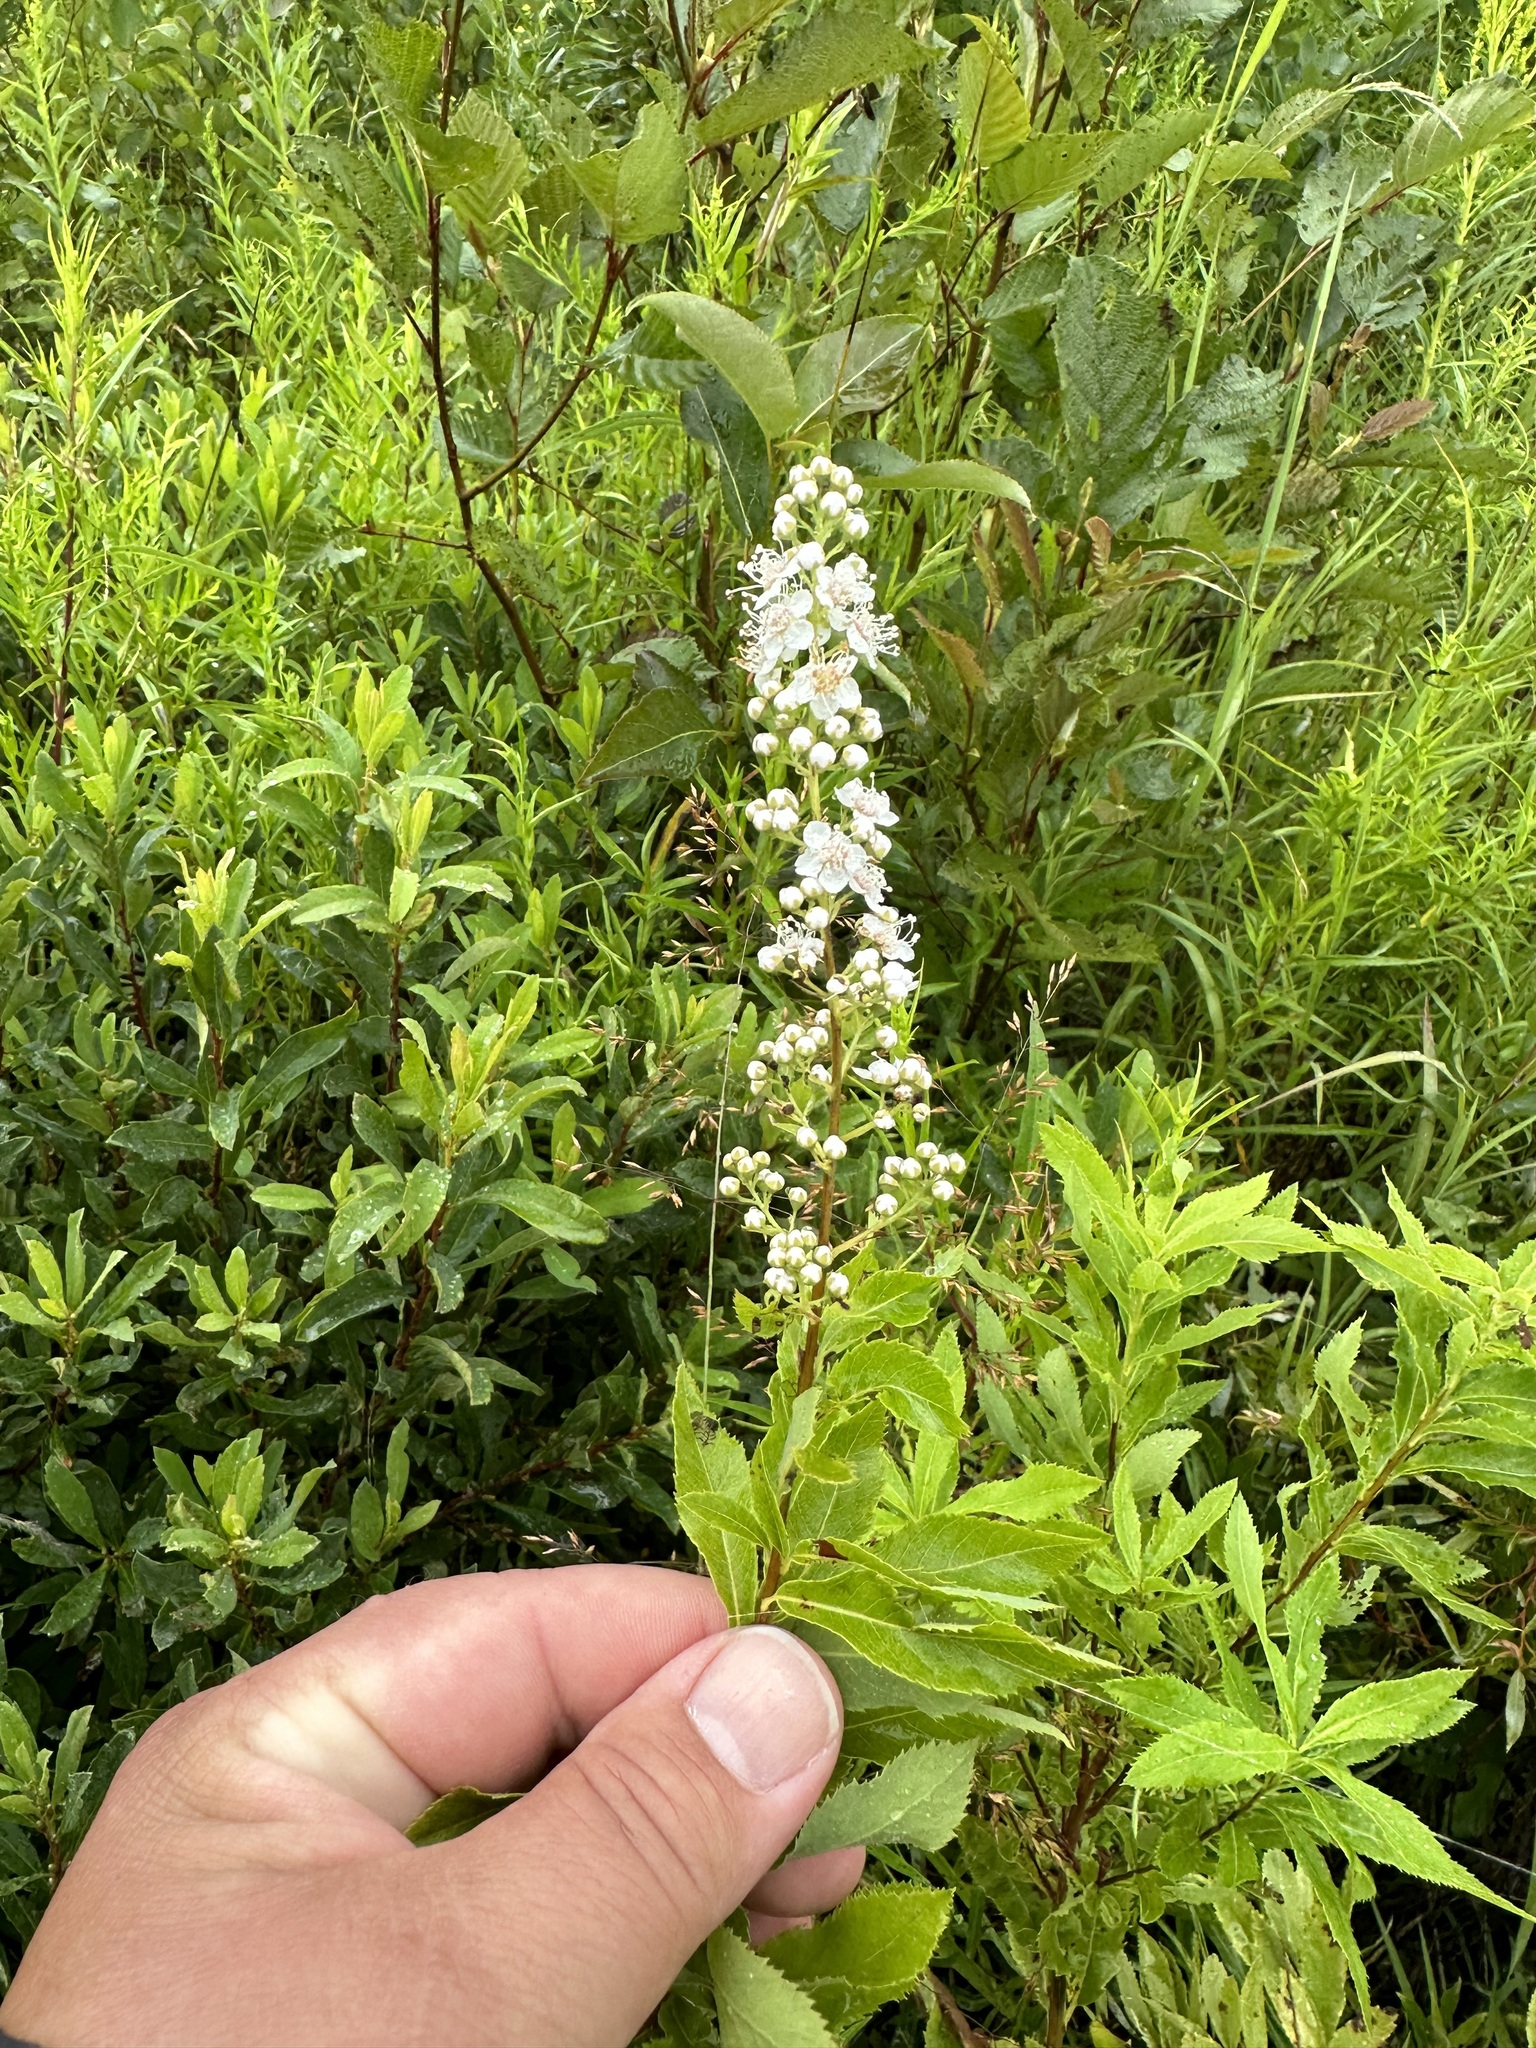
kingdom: Plantae
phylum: Tracheophyta
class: Magnoliopsida
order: Rosales
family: Rosaceae
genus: Spiraea
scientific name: Spiraea alba
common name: Pale bridewort
